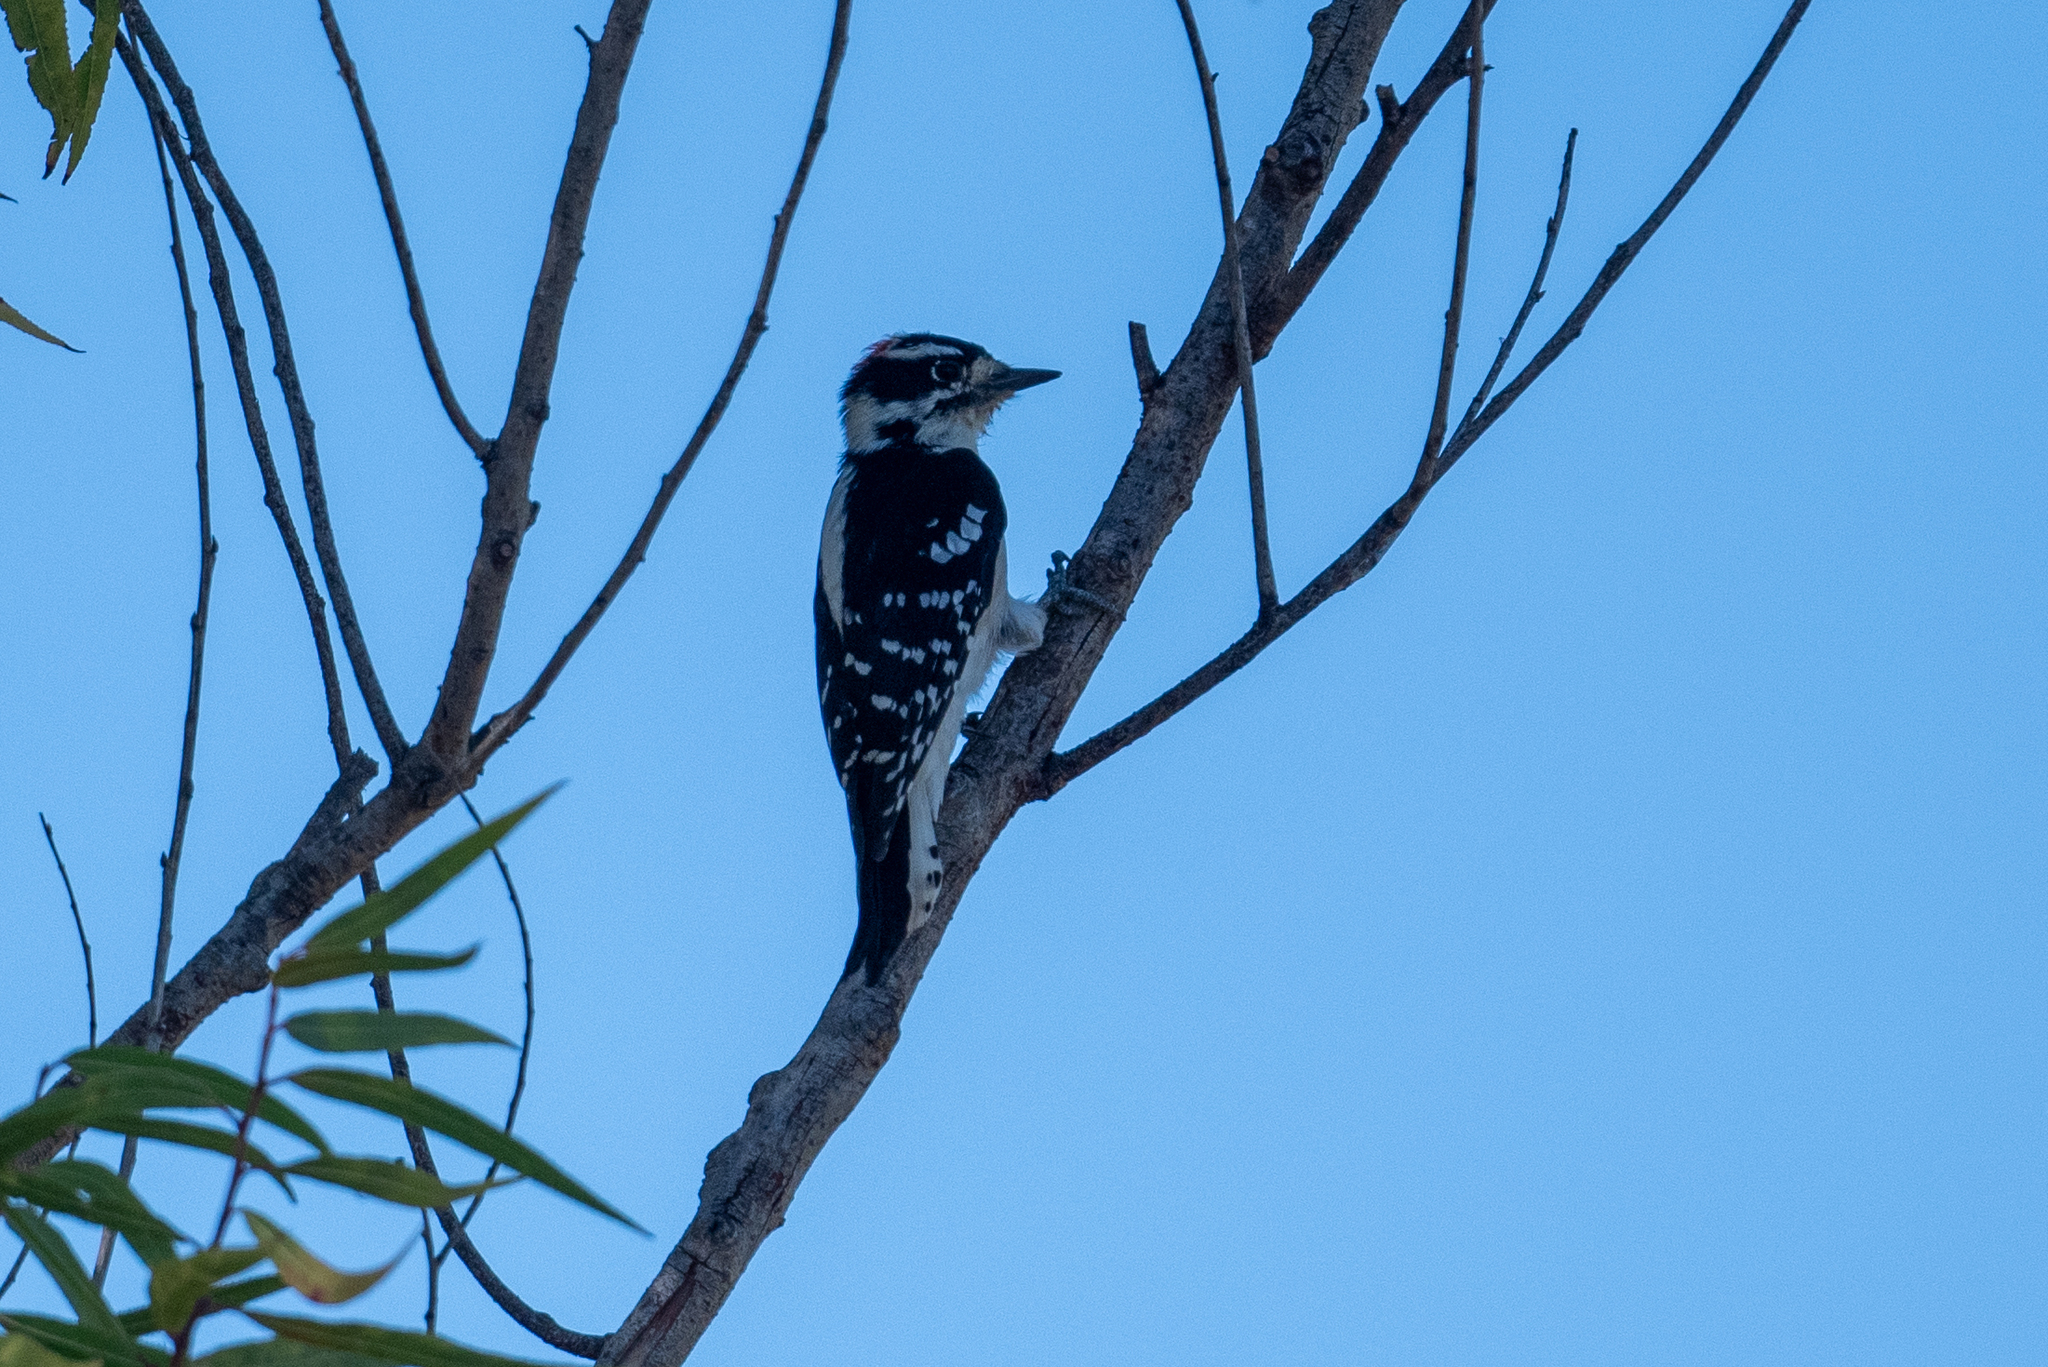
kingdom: Animalia
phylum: Chordata
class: Aves
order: Piciformes
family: Picidae
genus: Dryobates
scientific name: Dryobates pubescens
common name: Downy woodpecker
